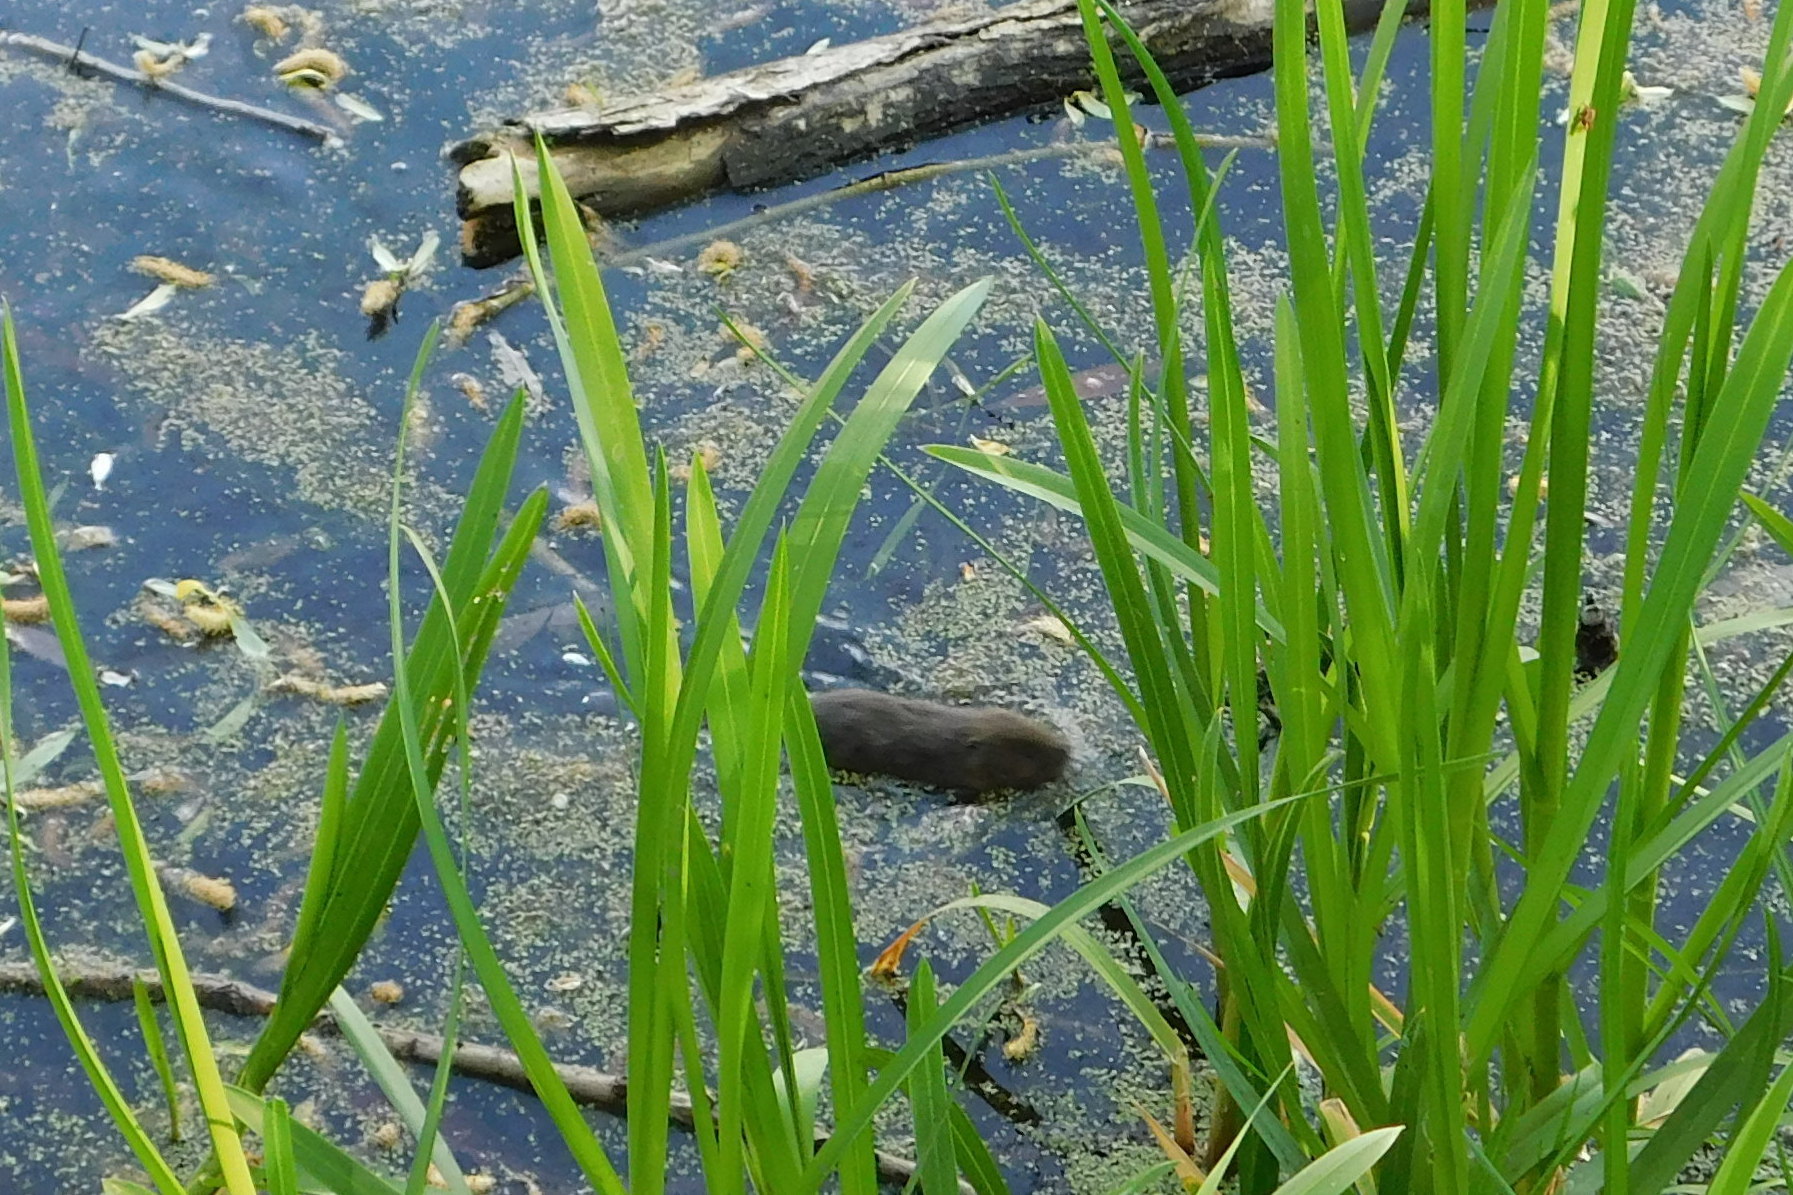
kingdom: Animalia
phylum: Chordata
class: Mammalia
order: Rodentia
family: Cricetidae
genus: Arvicola
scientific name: Arvicola amphibius
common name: European water vole
